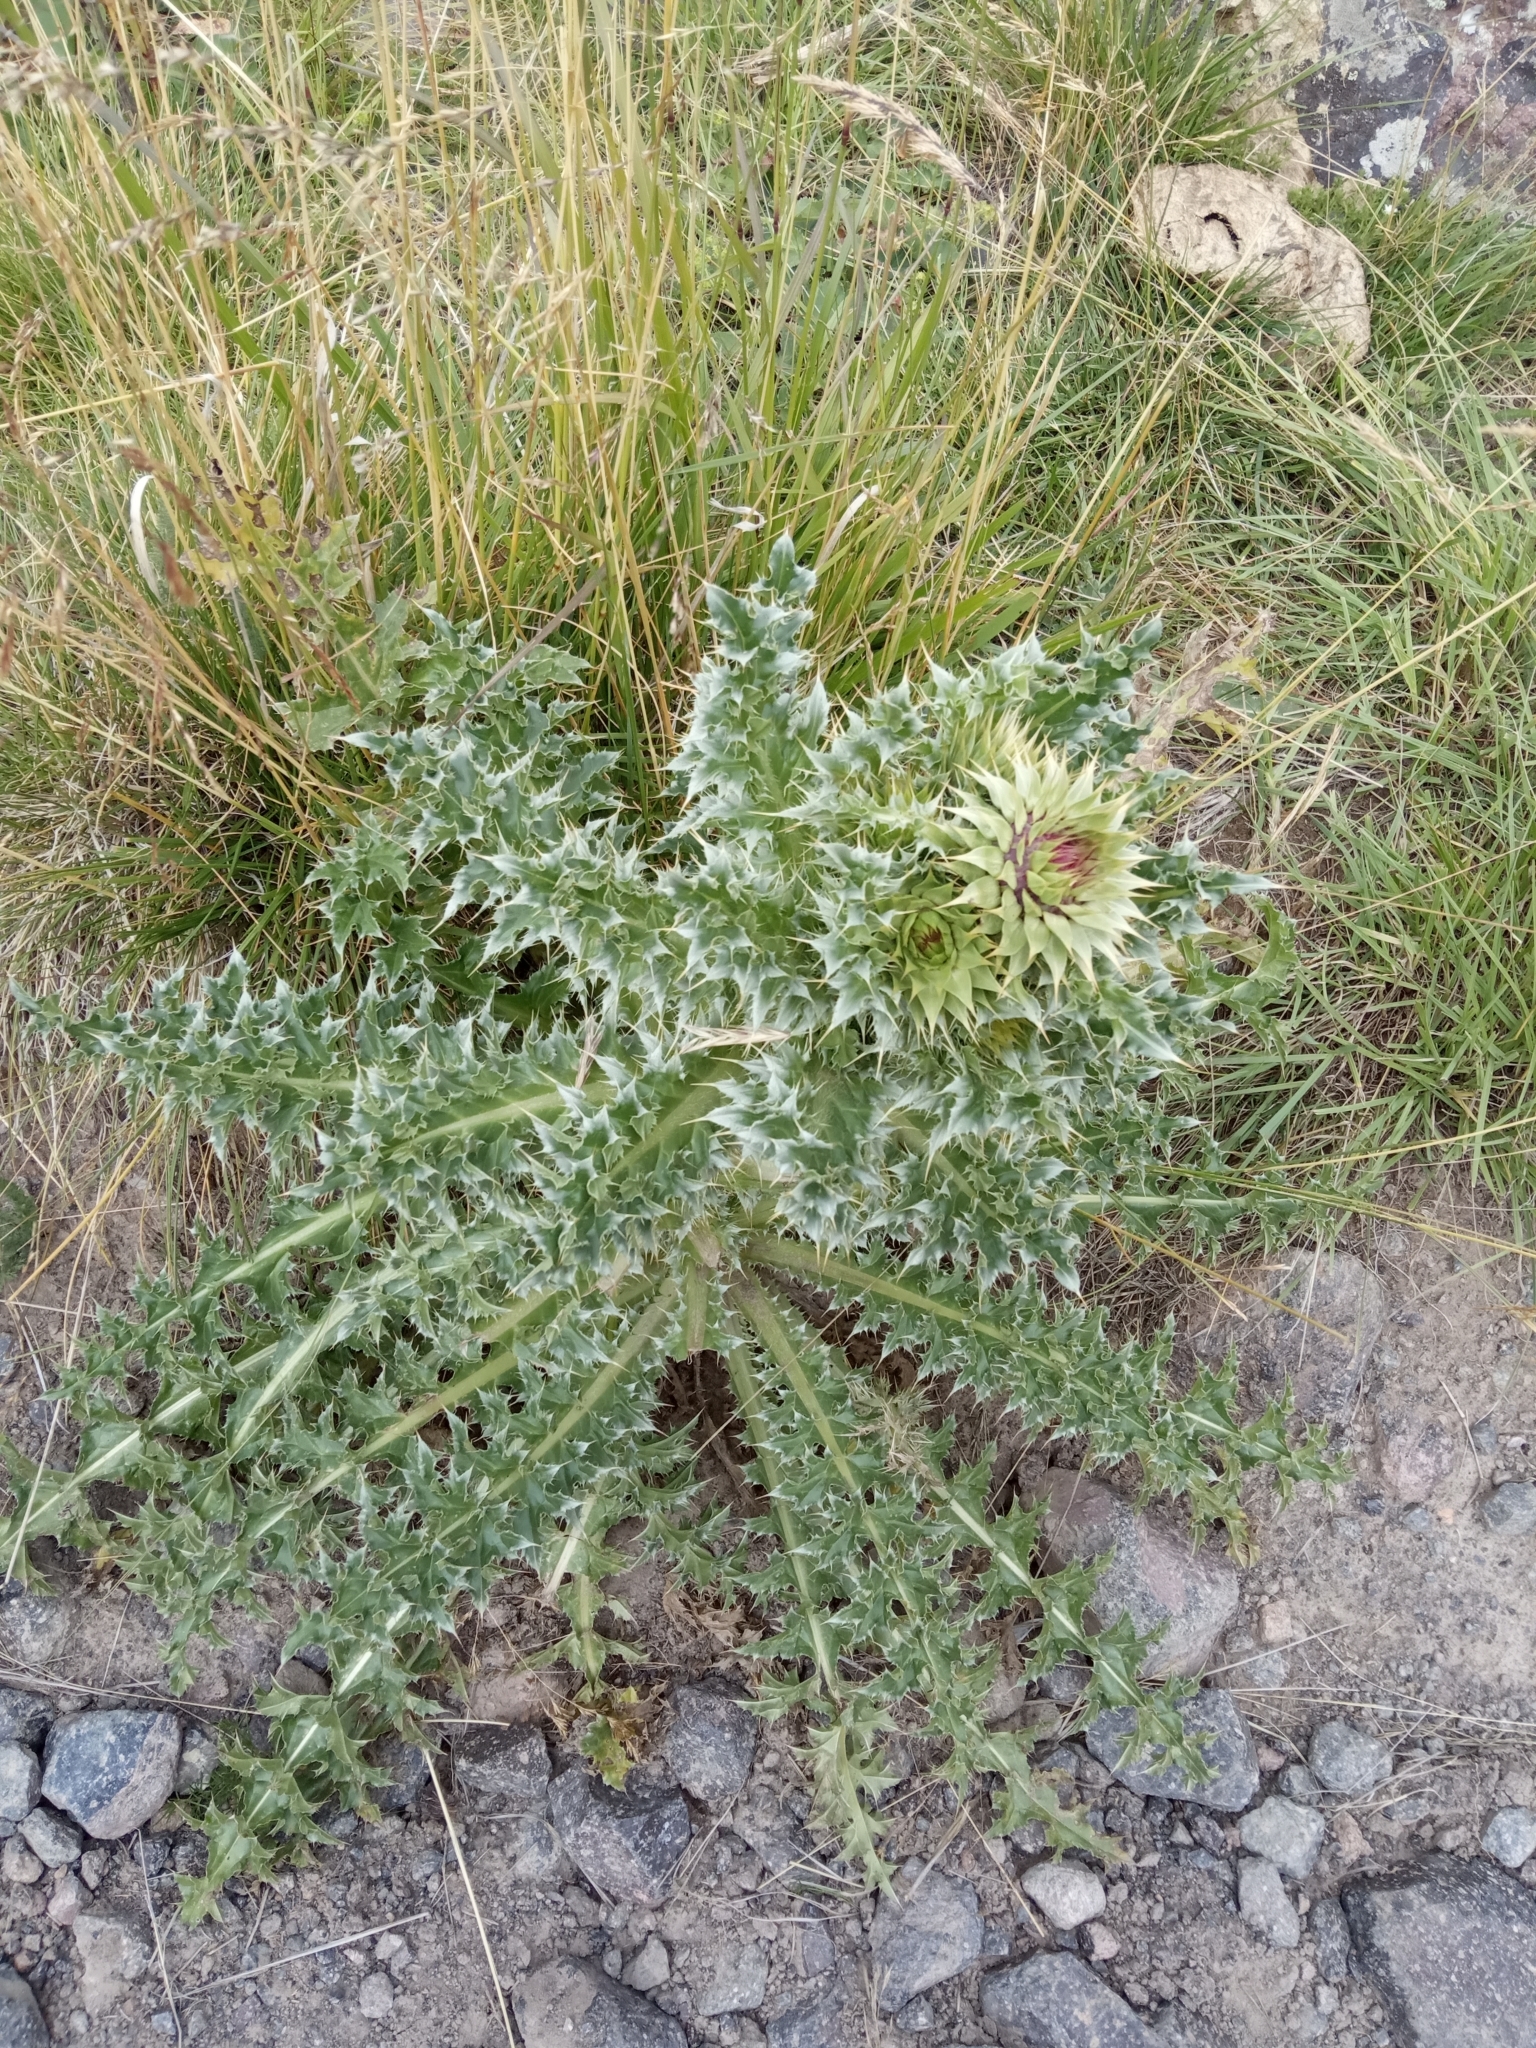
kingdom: Plantae
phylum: Tracheophyta
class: Magnoliopsida
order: Asterales
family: Asteraceae
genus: Carduus
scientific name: Carduus nutans
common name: Musk thistle
